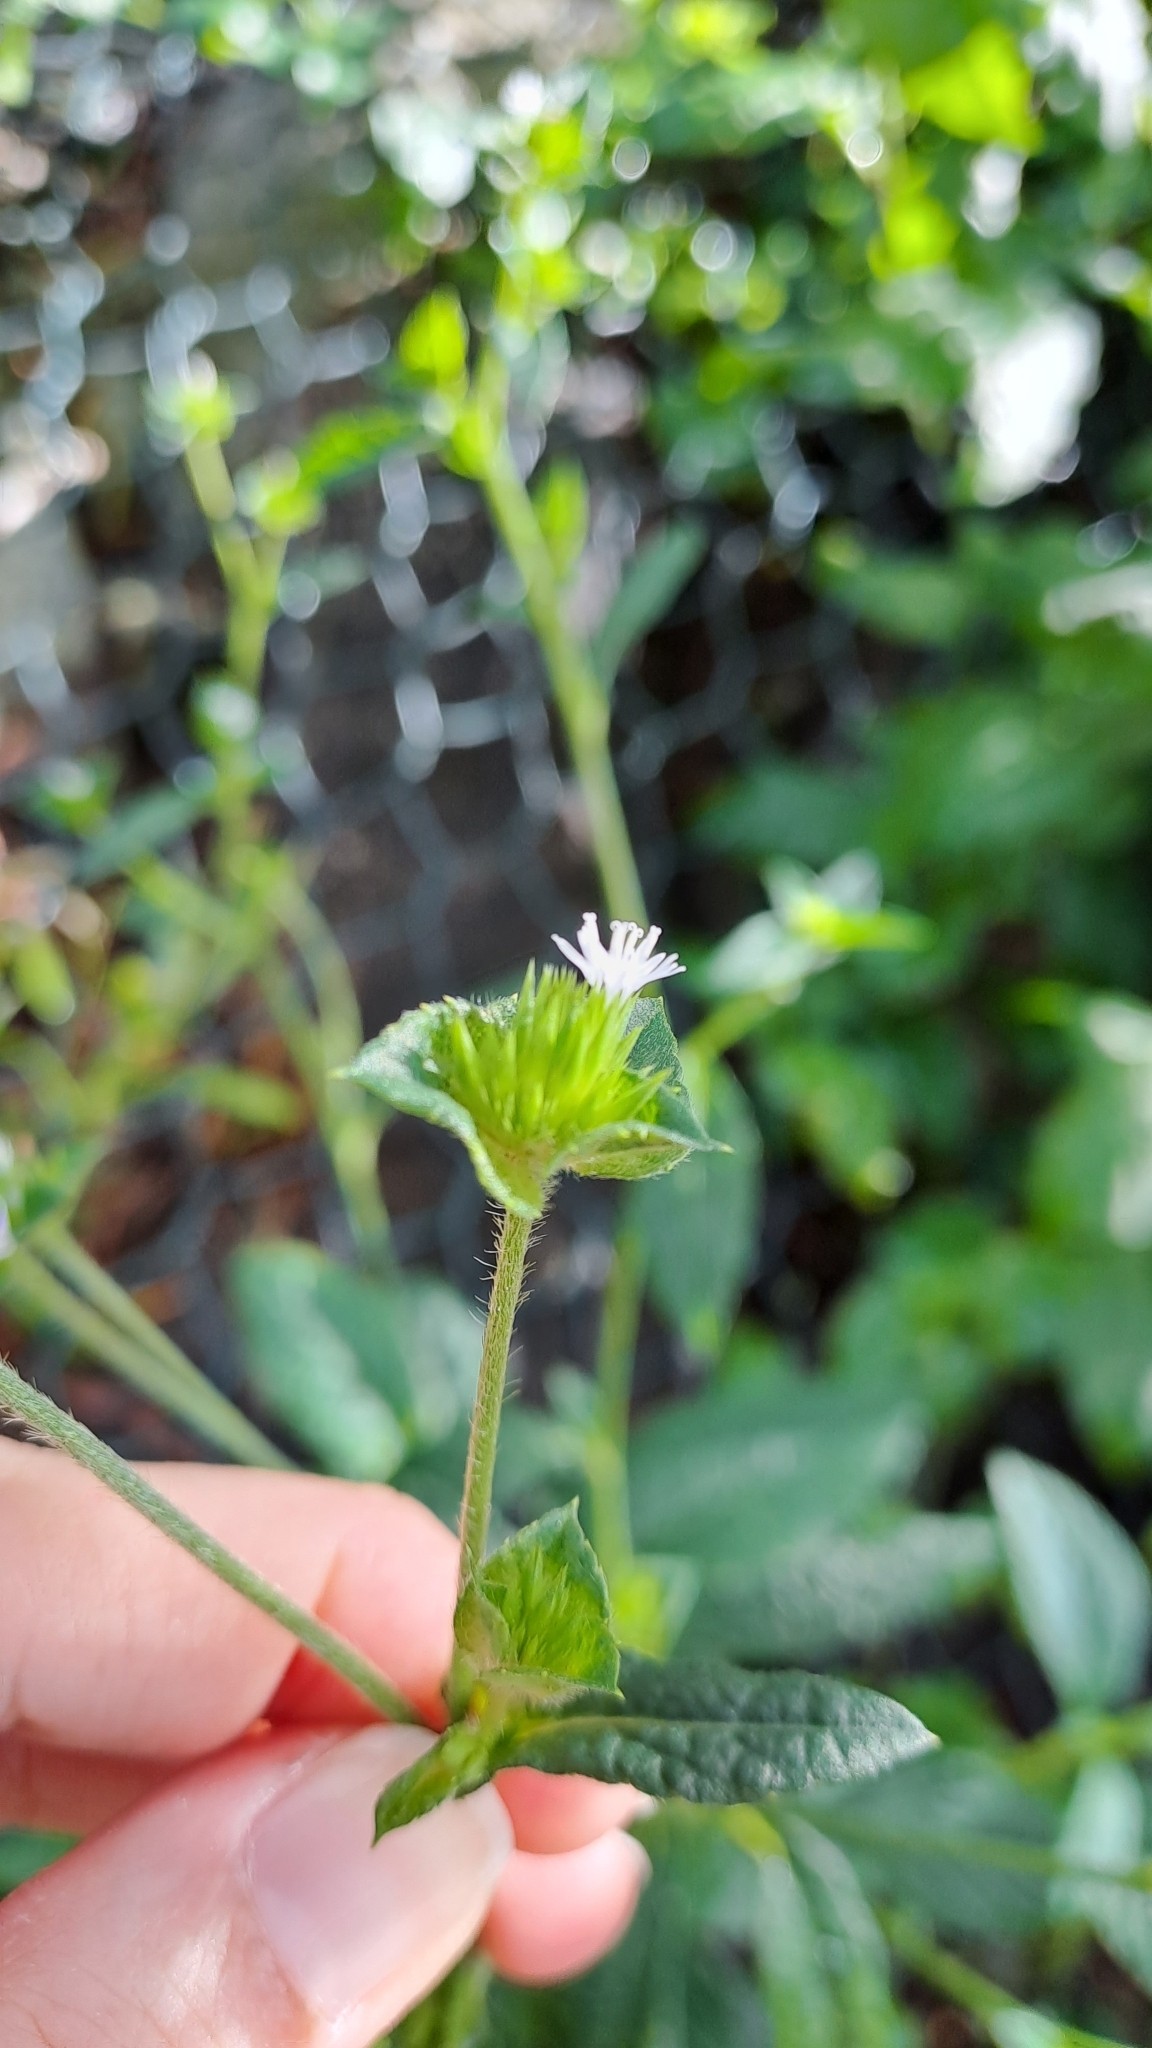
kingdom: Plantae
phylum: Tracheophyta
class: Magnoliopsida
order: Asterales
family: Asteraceae
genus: Elephantopus
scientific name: Elephantopus tomentosus
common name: Tobacco-weed
